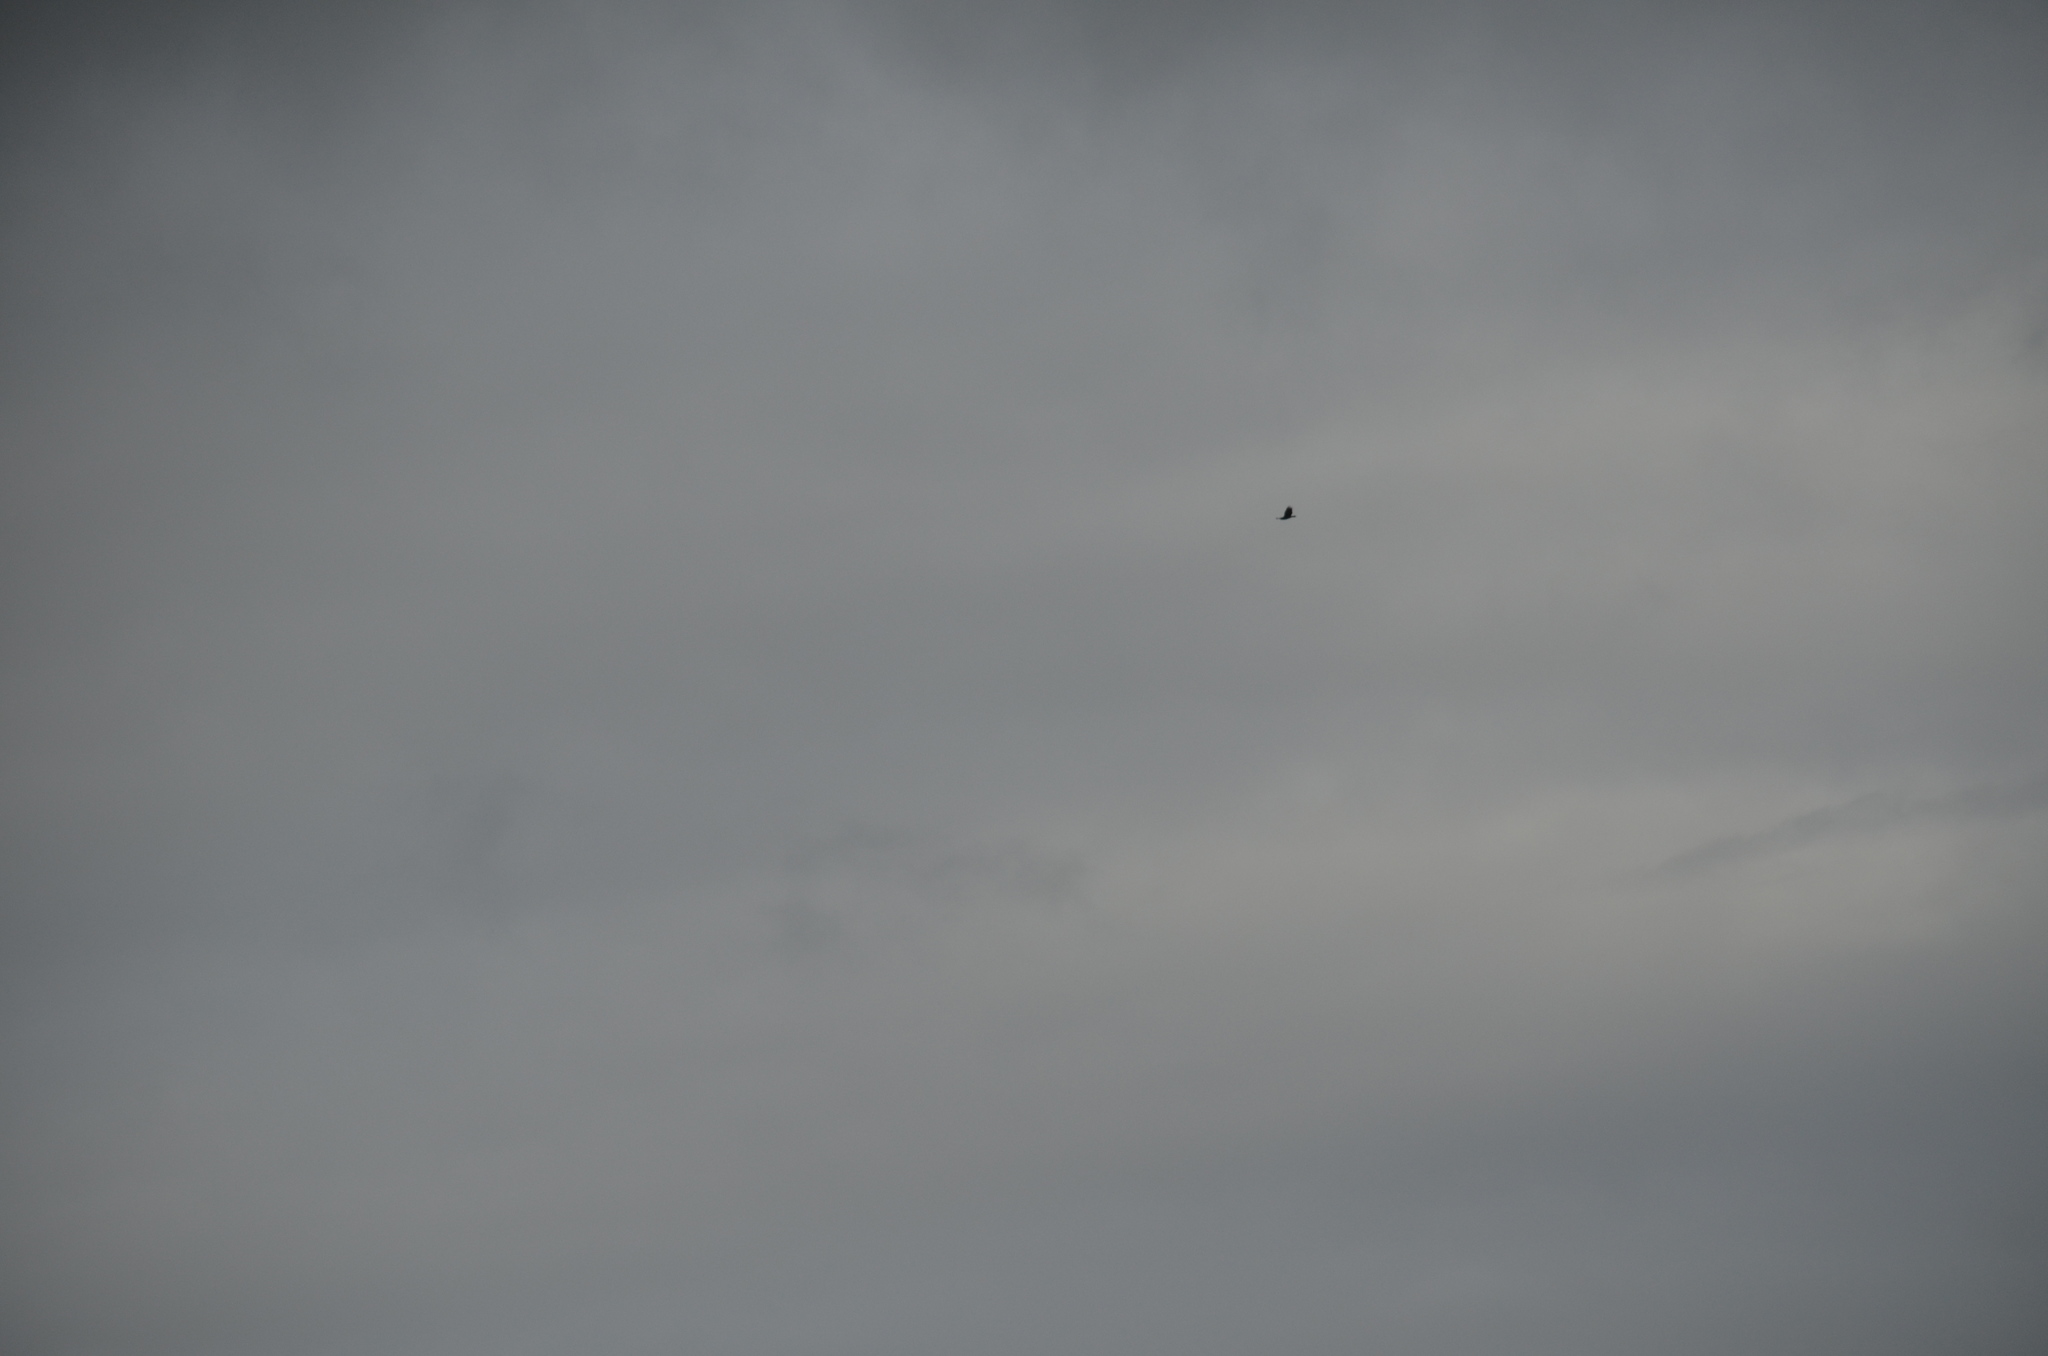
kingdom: Animalia
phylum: Chordata
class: Aves
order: Accipitriformes
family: Accipitridae
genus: Haliaeetus
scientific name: Haliaeetus leucocephalus
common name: Bald eagle
